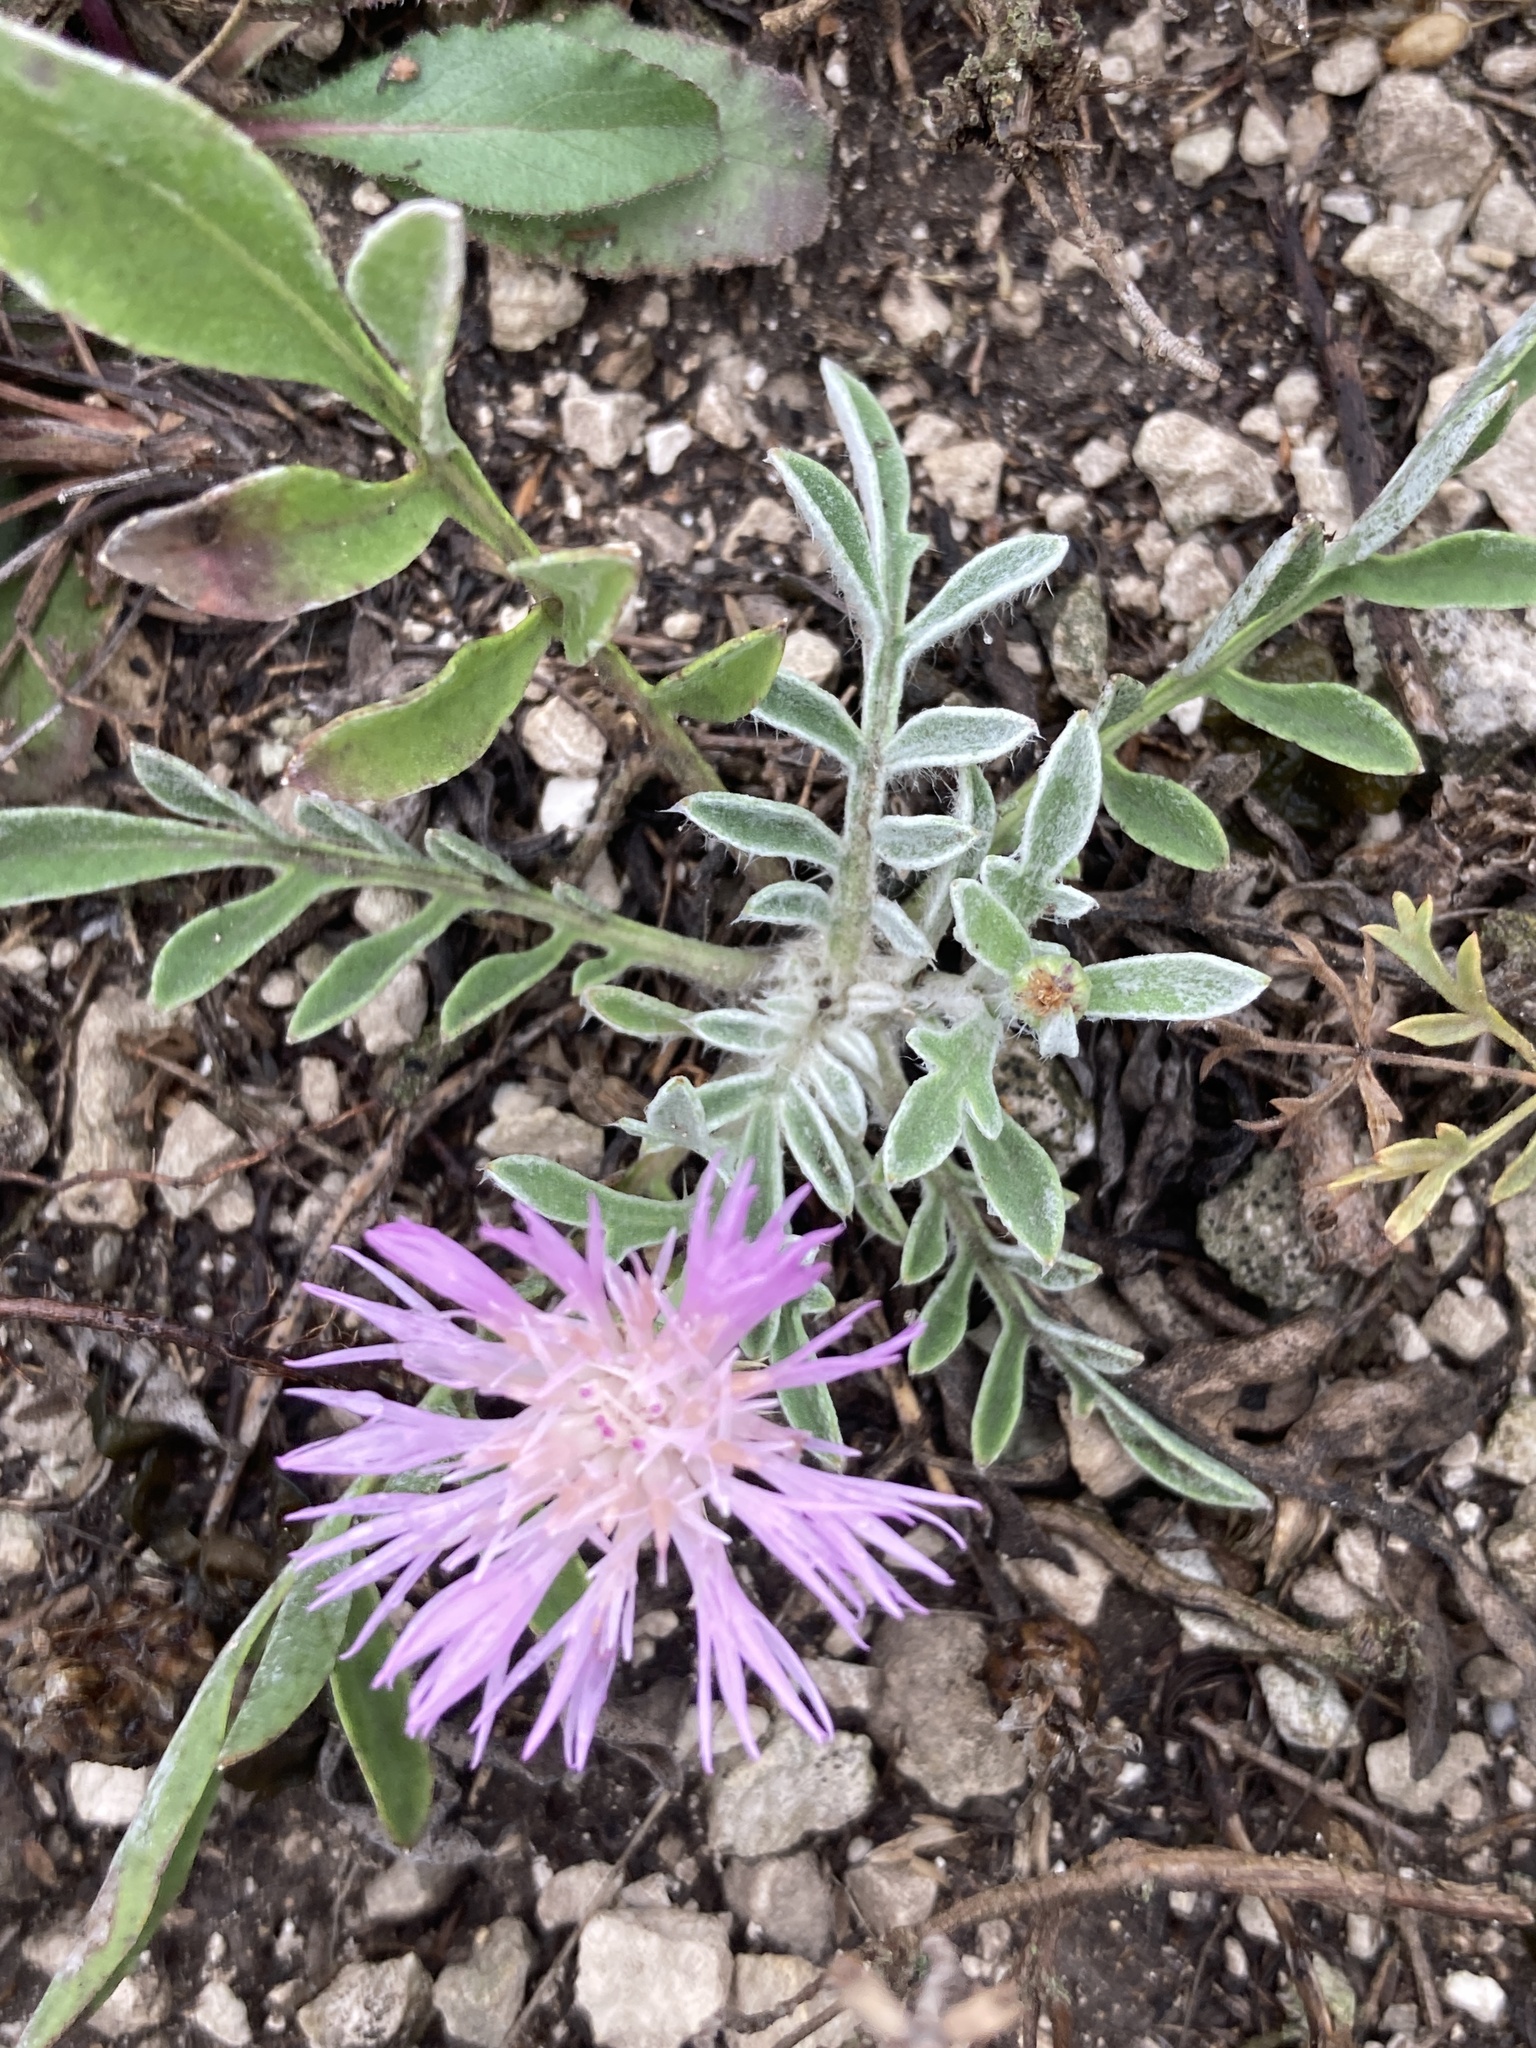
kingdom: Plantae
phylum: Tracheophyta
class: Magnoliopsida
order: Asterales
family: Asteraceae
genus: Psephellus
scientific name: Psephellus marschallianus
